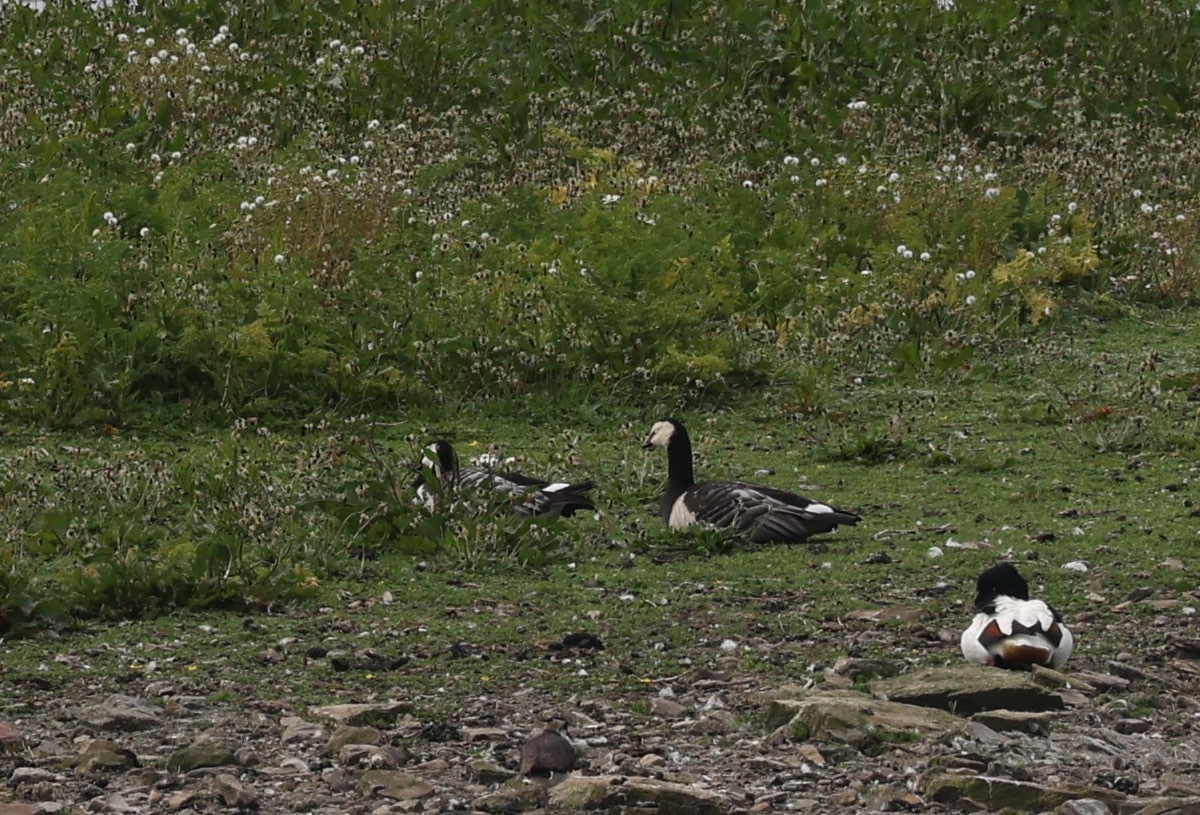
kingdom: Animalia
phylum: Chordata
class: Aves
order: Anseriformes
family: Anatidae
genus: Branta
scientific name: Branta leucopsis
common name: Barnacle goose
